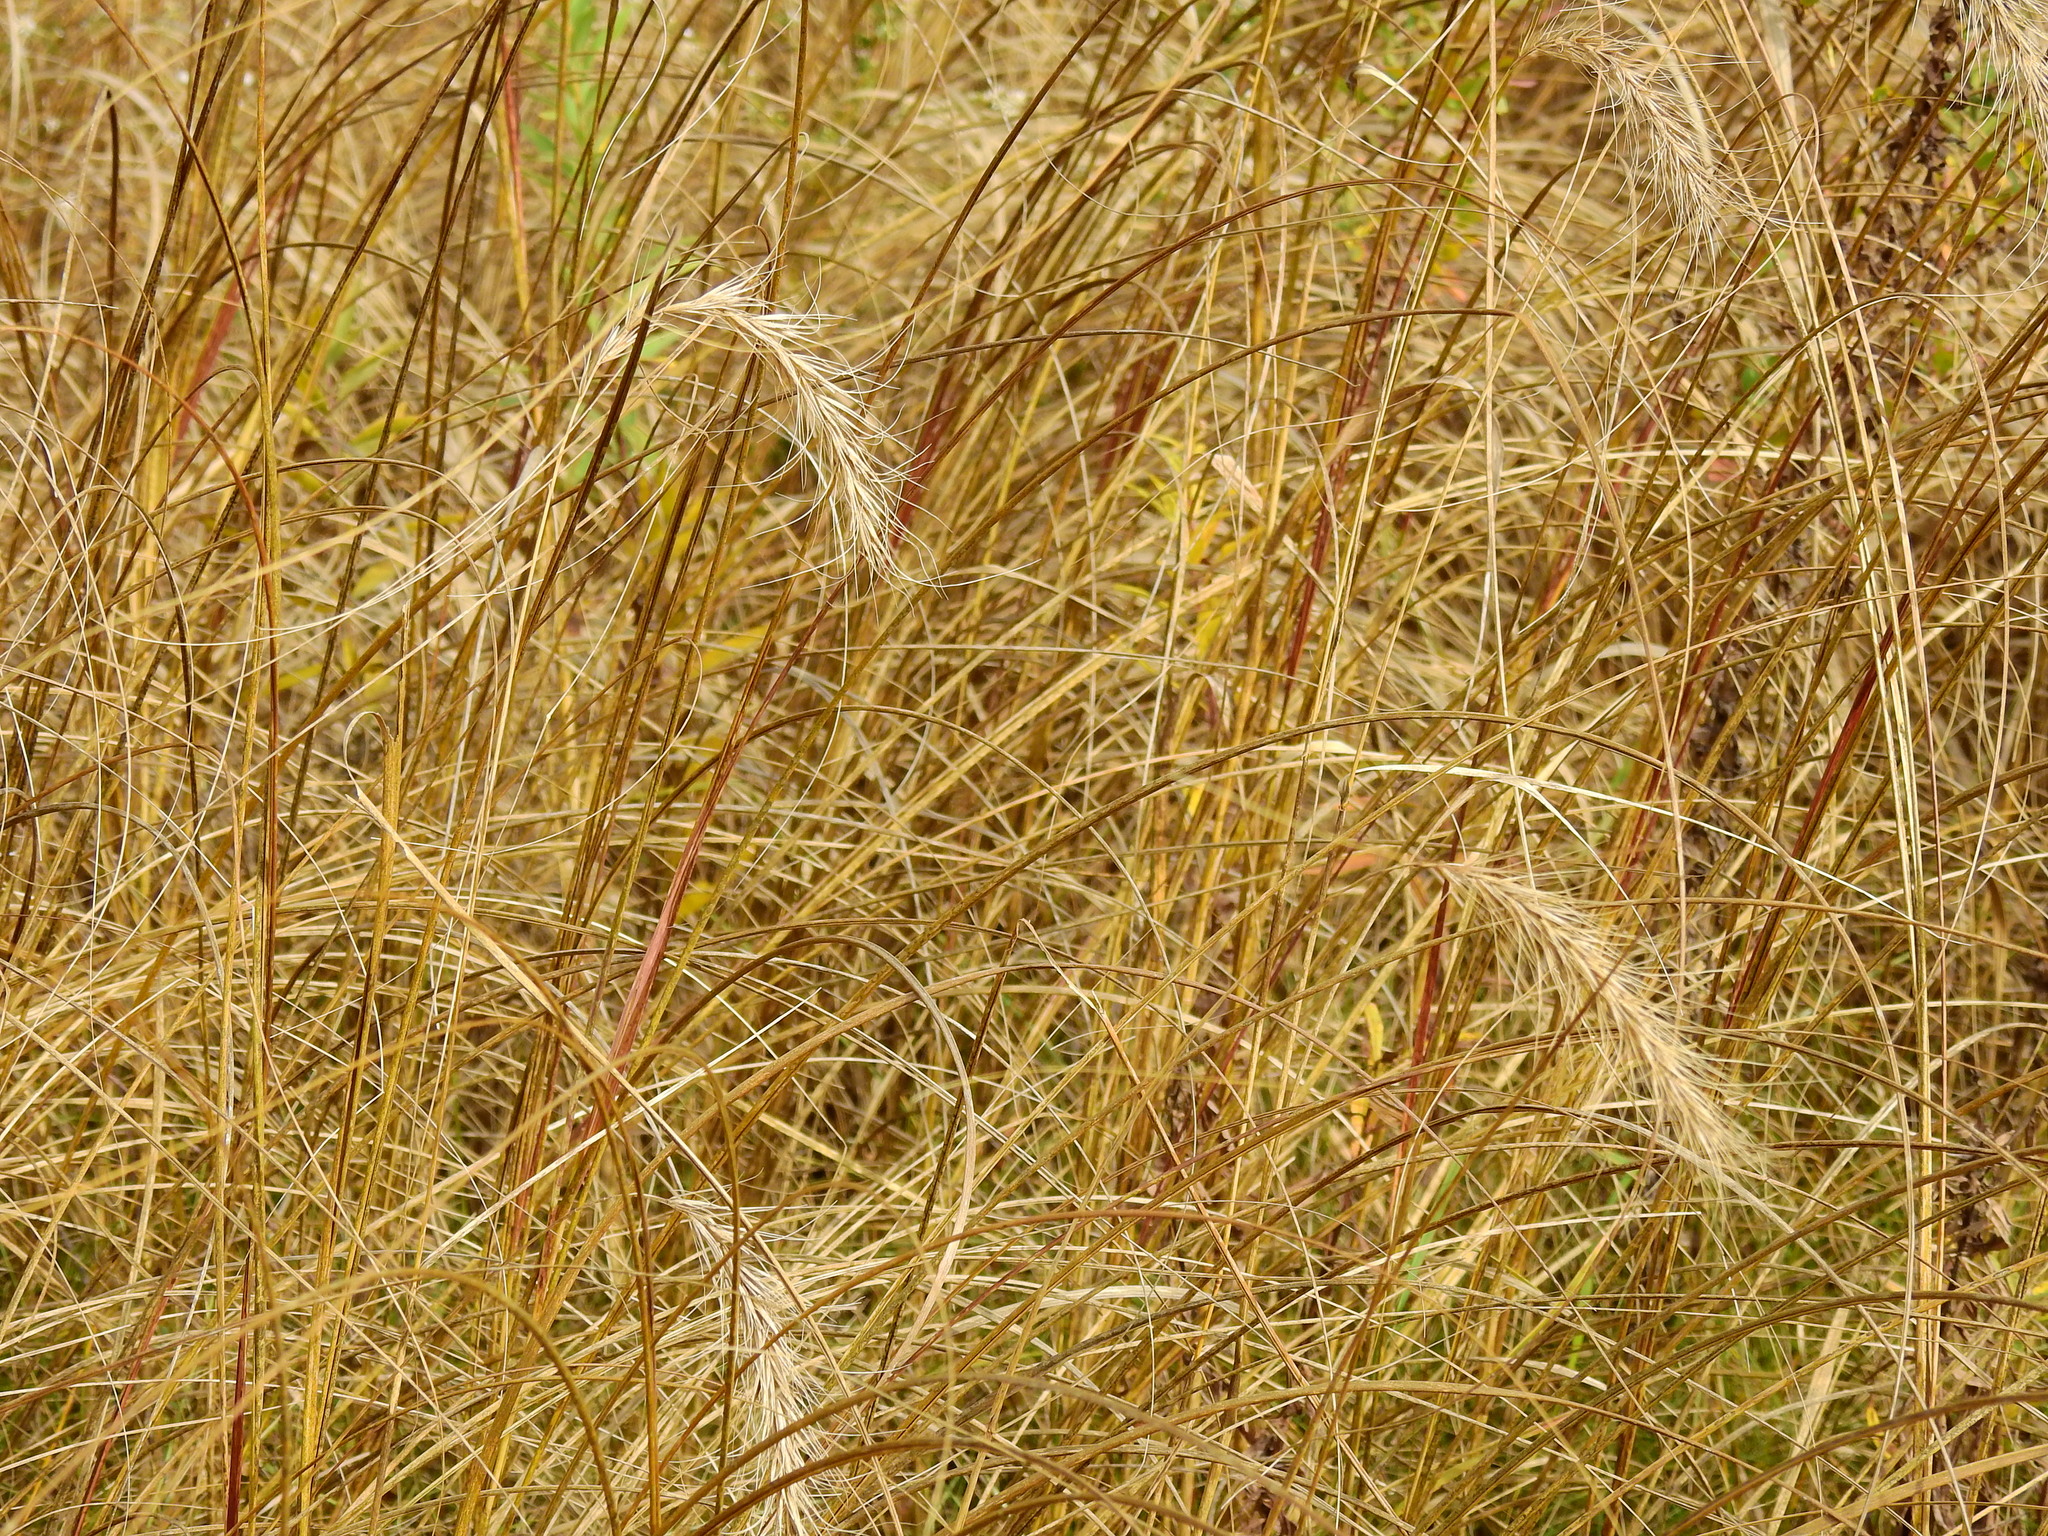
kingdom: Plantae
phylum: Tracheophyta
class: Liliopsida
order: Poales
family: Poaceae
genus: Elymus
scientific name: Elymus canadensis
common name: Canada wild rye
